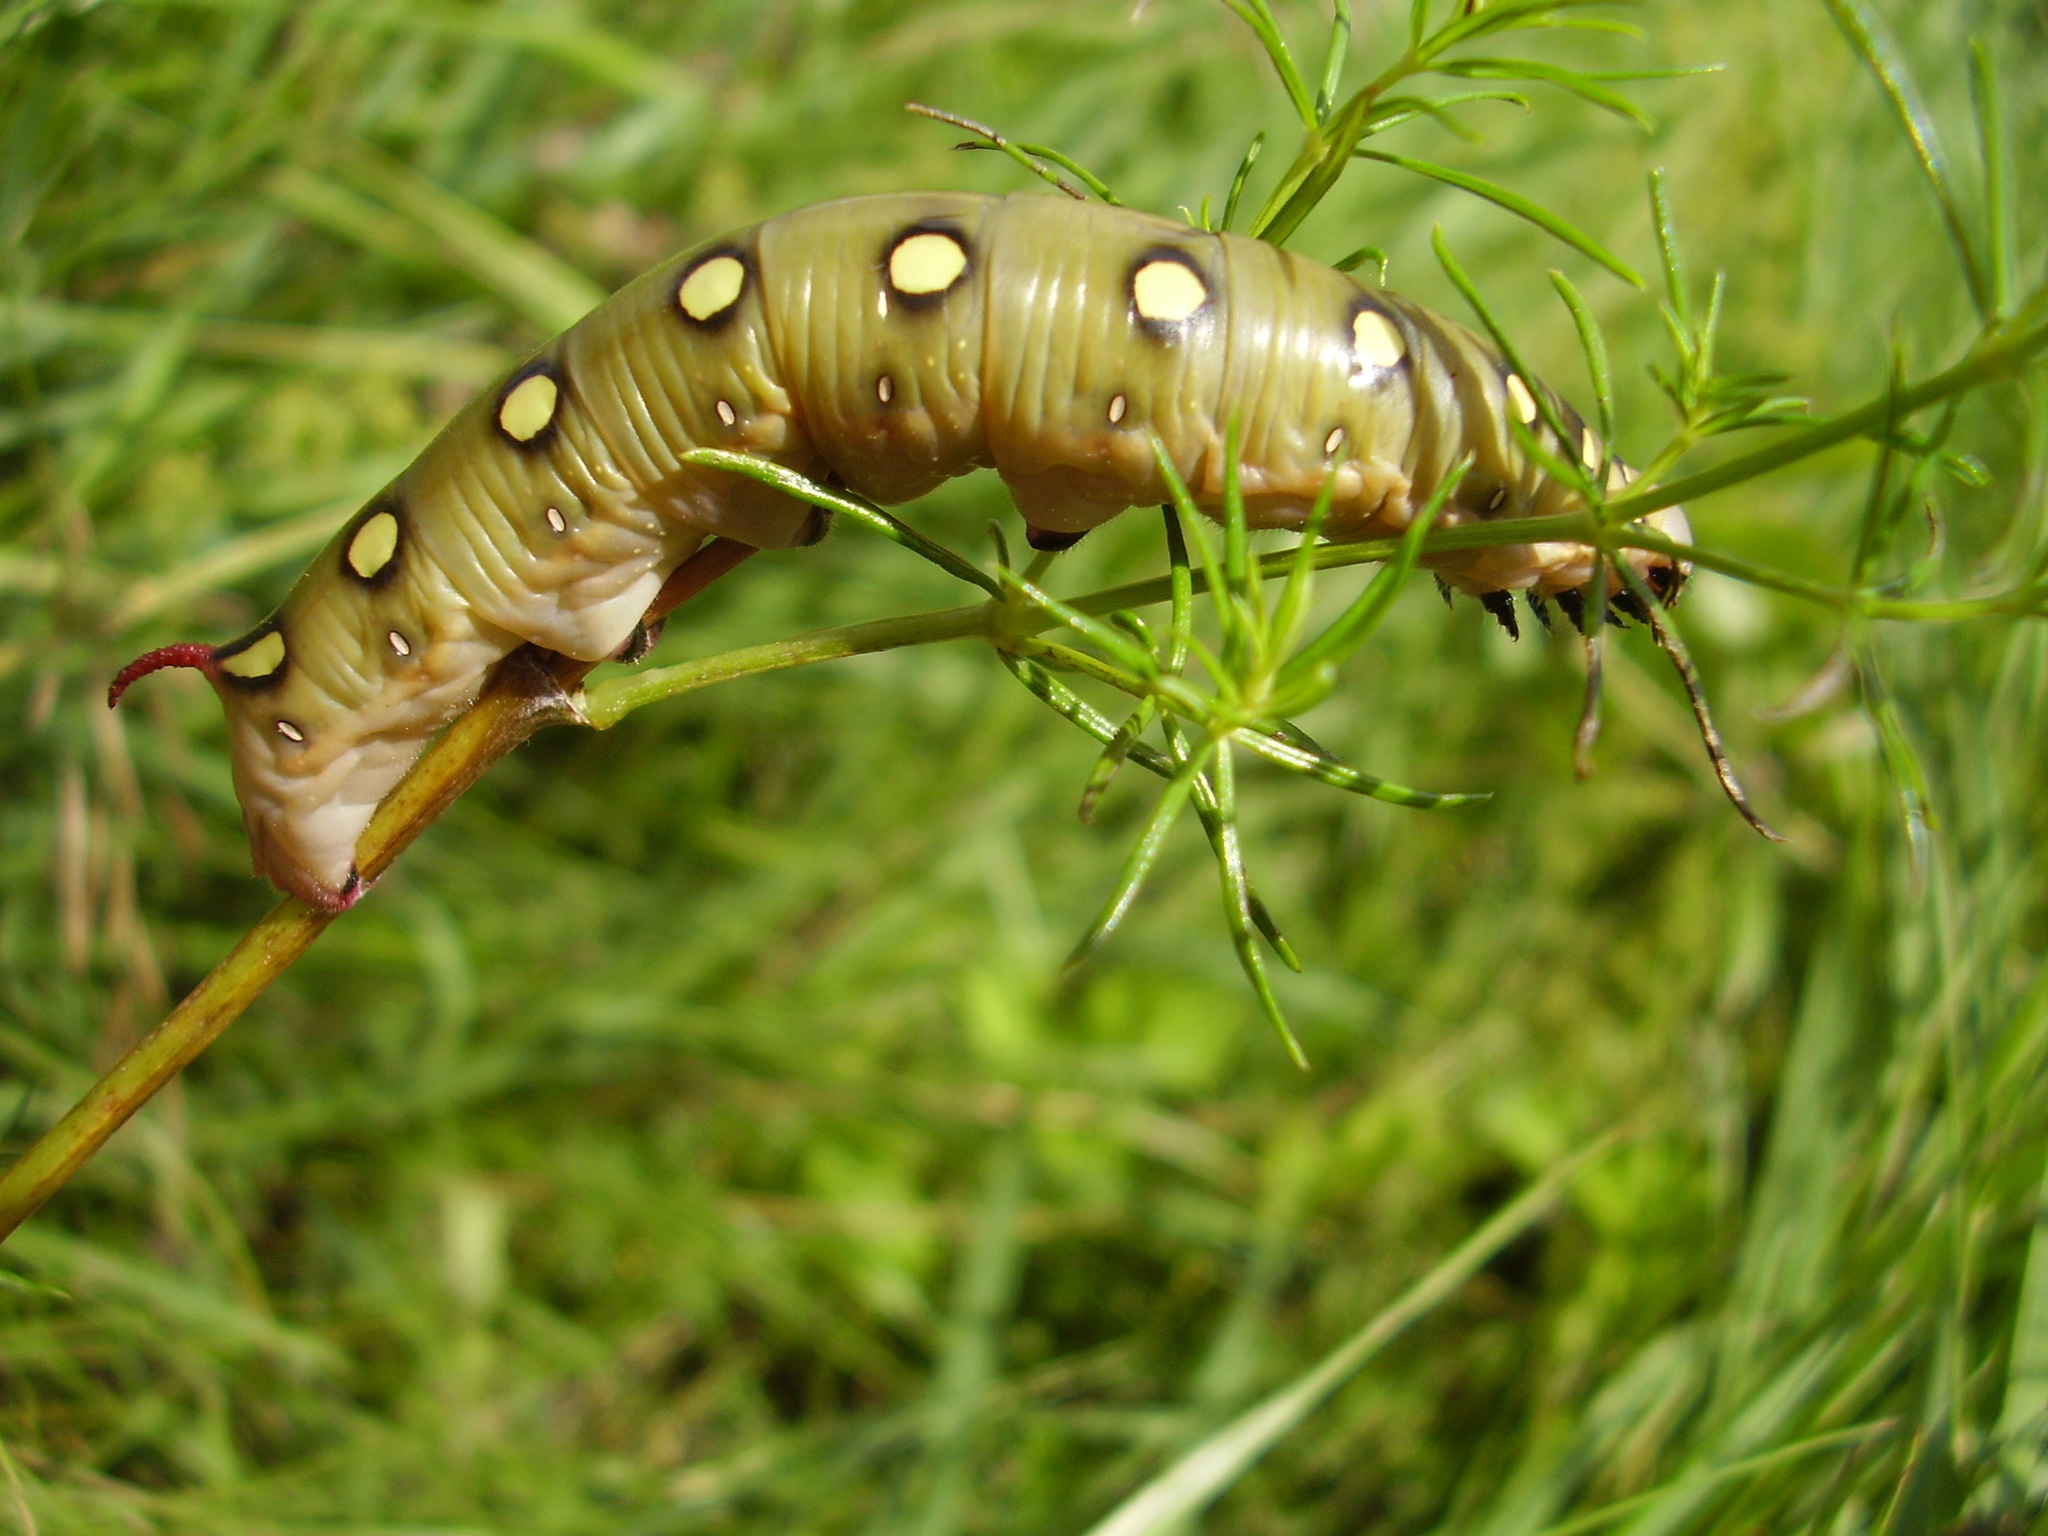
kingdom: Animalia
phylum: Arthropoda
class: Insecta
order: Lepidoptera
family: Sphingidae
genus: Hyles
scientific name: Hyles gallii
